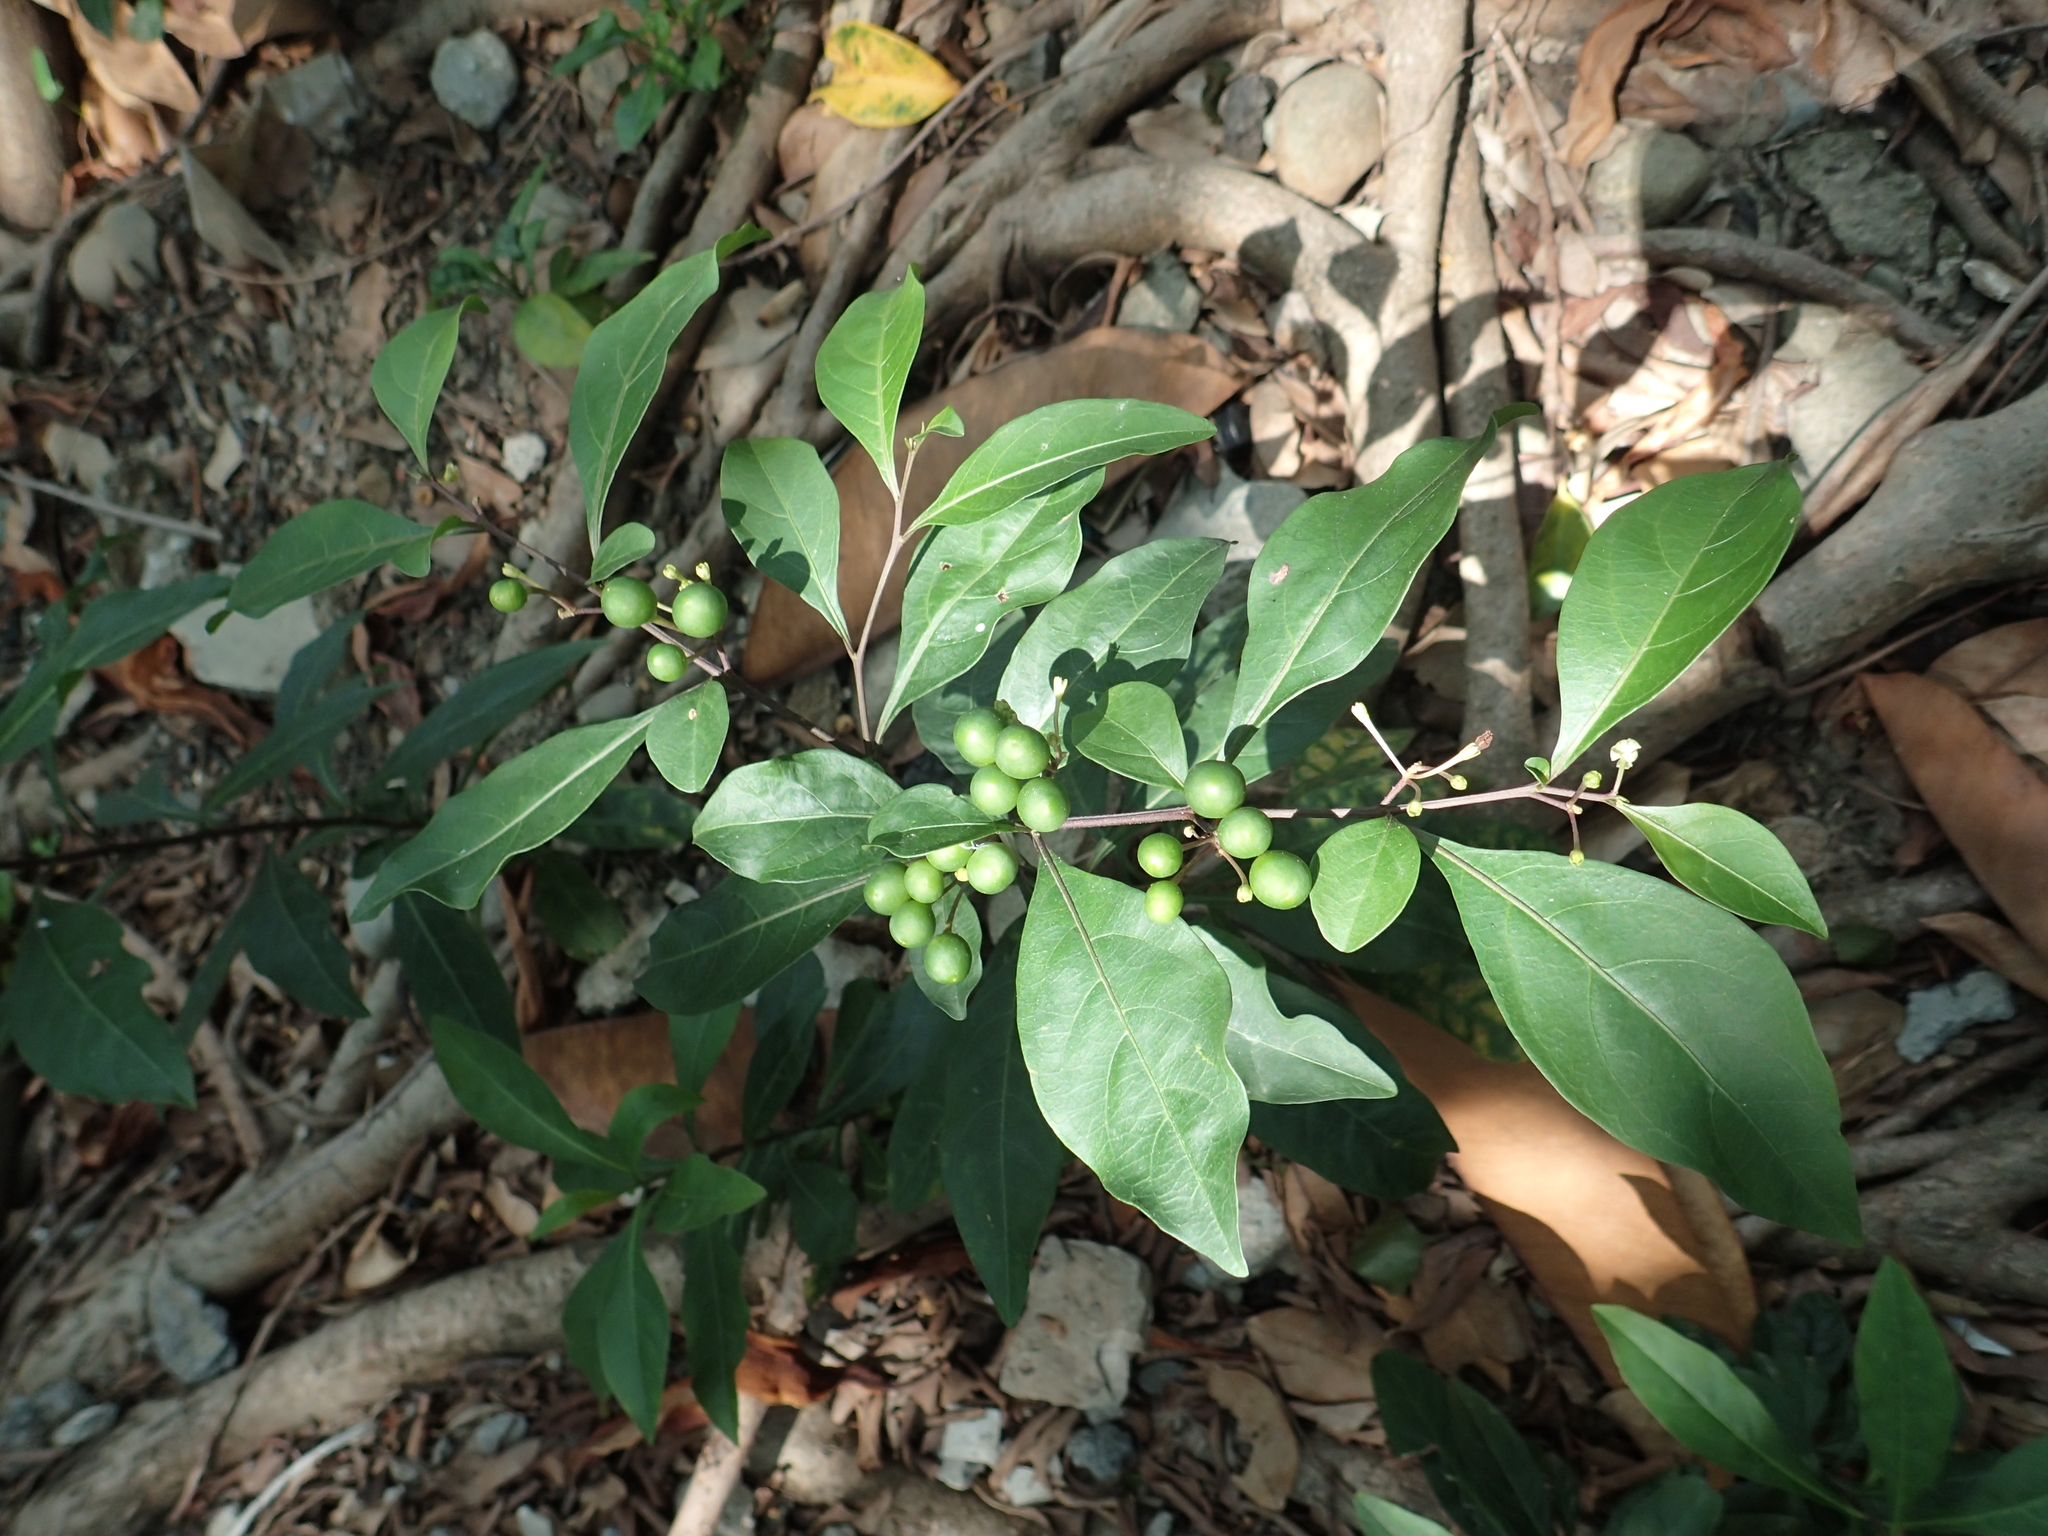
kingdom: Plantae
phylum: Tracheophyta
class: Magnoliopsida
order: Solanales
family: Solanaceae
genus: Solanum
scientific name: Solanum diphyllum
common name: Twoleaf nightshade
